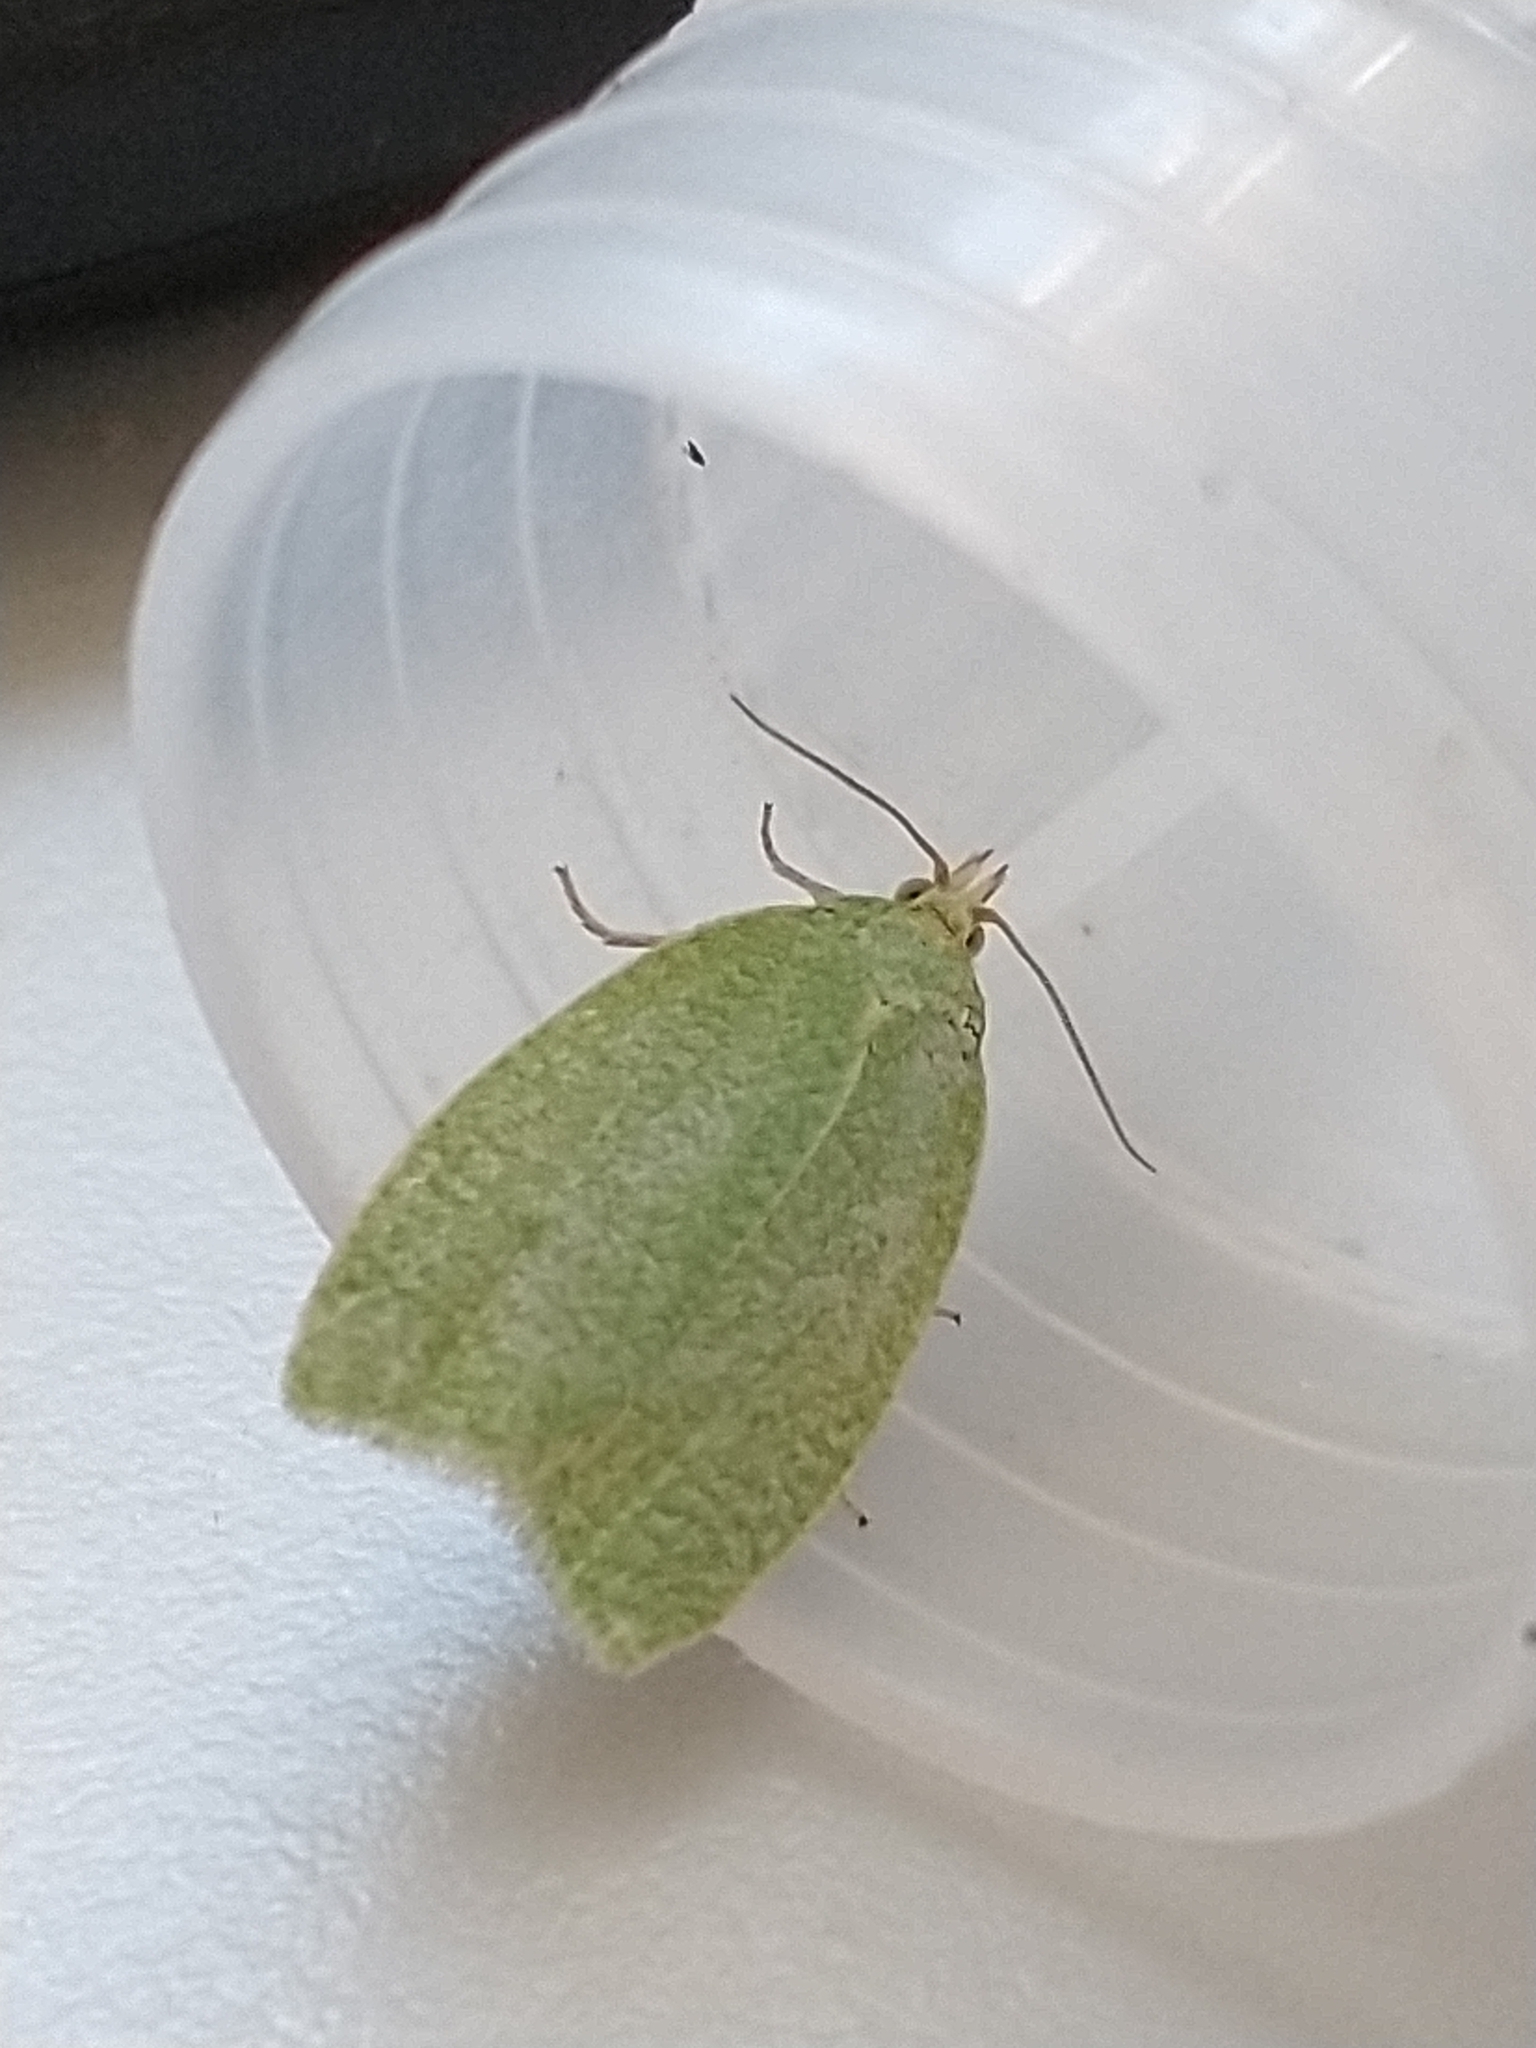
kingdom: Animalia
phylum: Arthropoda
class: Insecta
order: Lepidoptera
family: Tortricidae
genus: Tortrix
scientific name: Tortrix viridana
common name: Green oak tortrix
